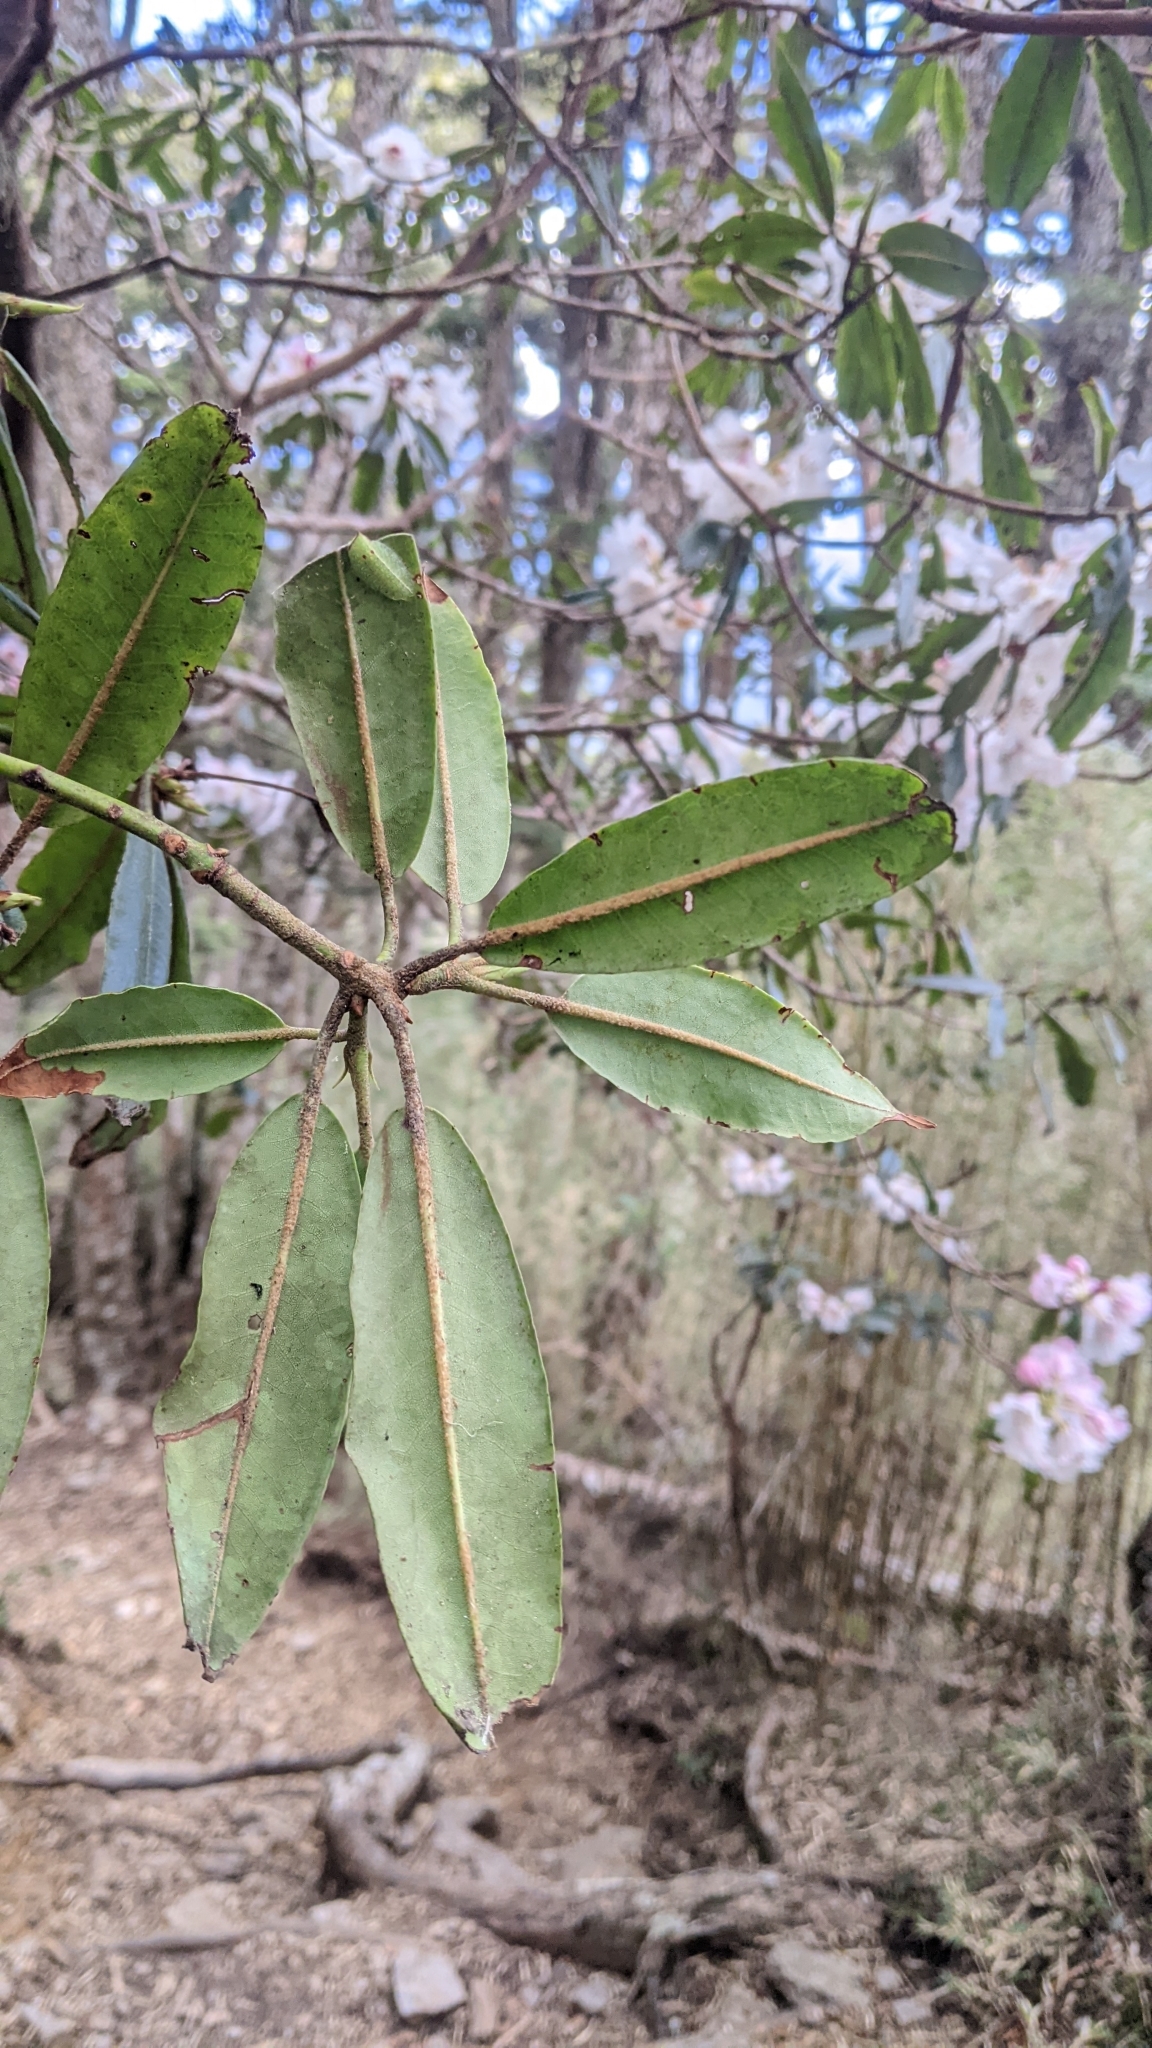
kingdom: Plantae
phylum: Tracheophyta
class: Magnoliopsida
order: Ericales
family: Ericaceae
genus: Rhododendron
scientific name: Rhododendron pseudochrysanthum
